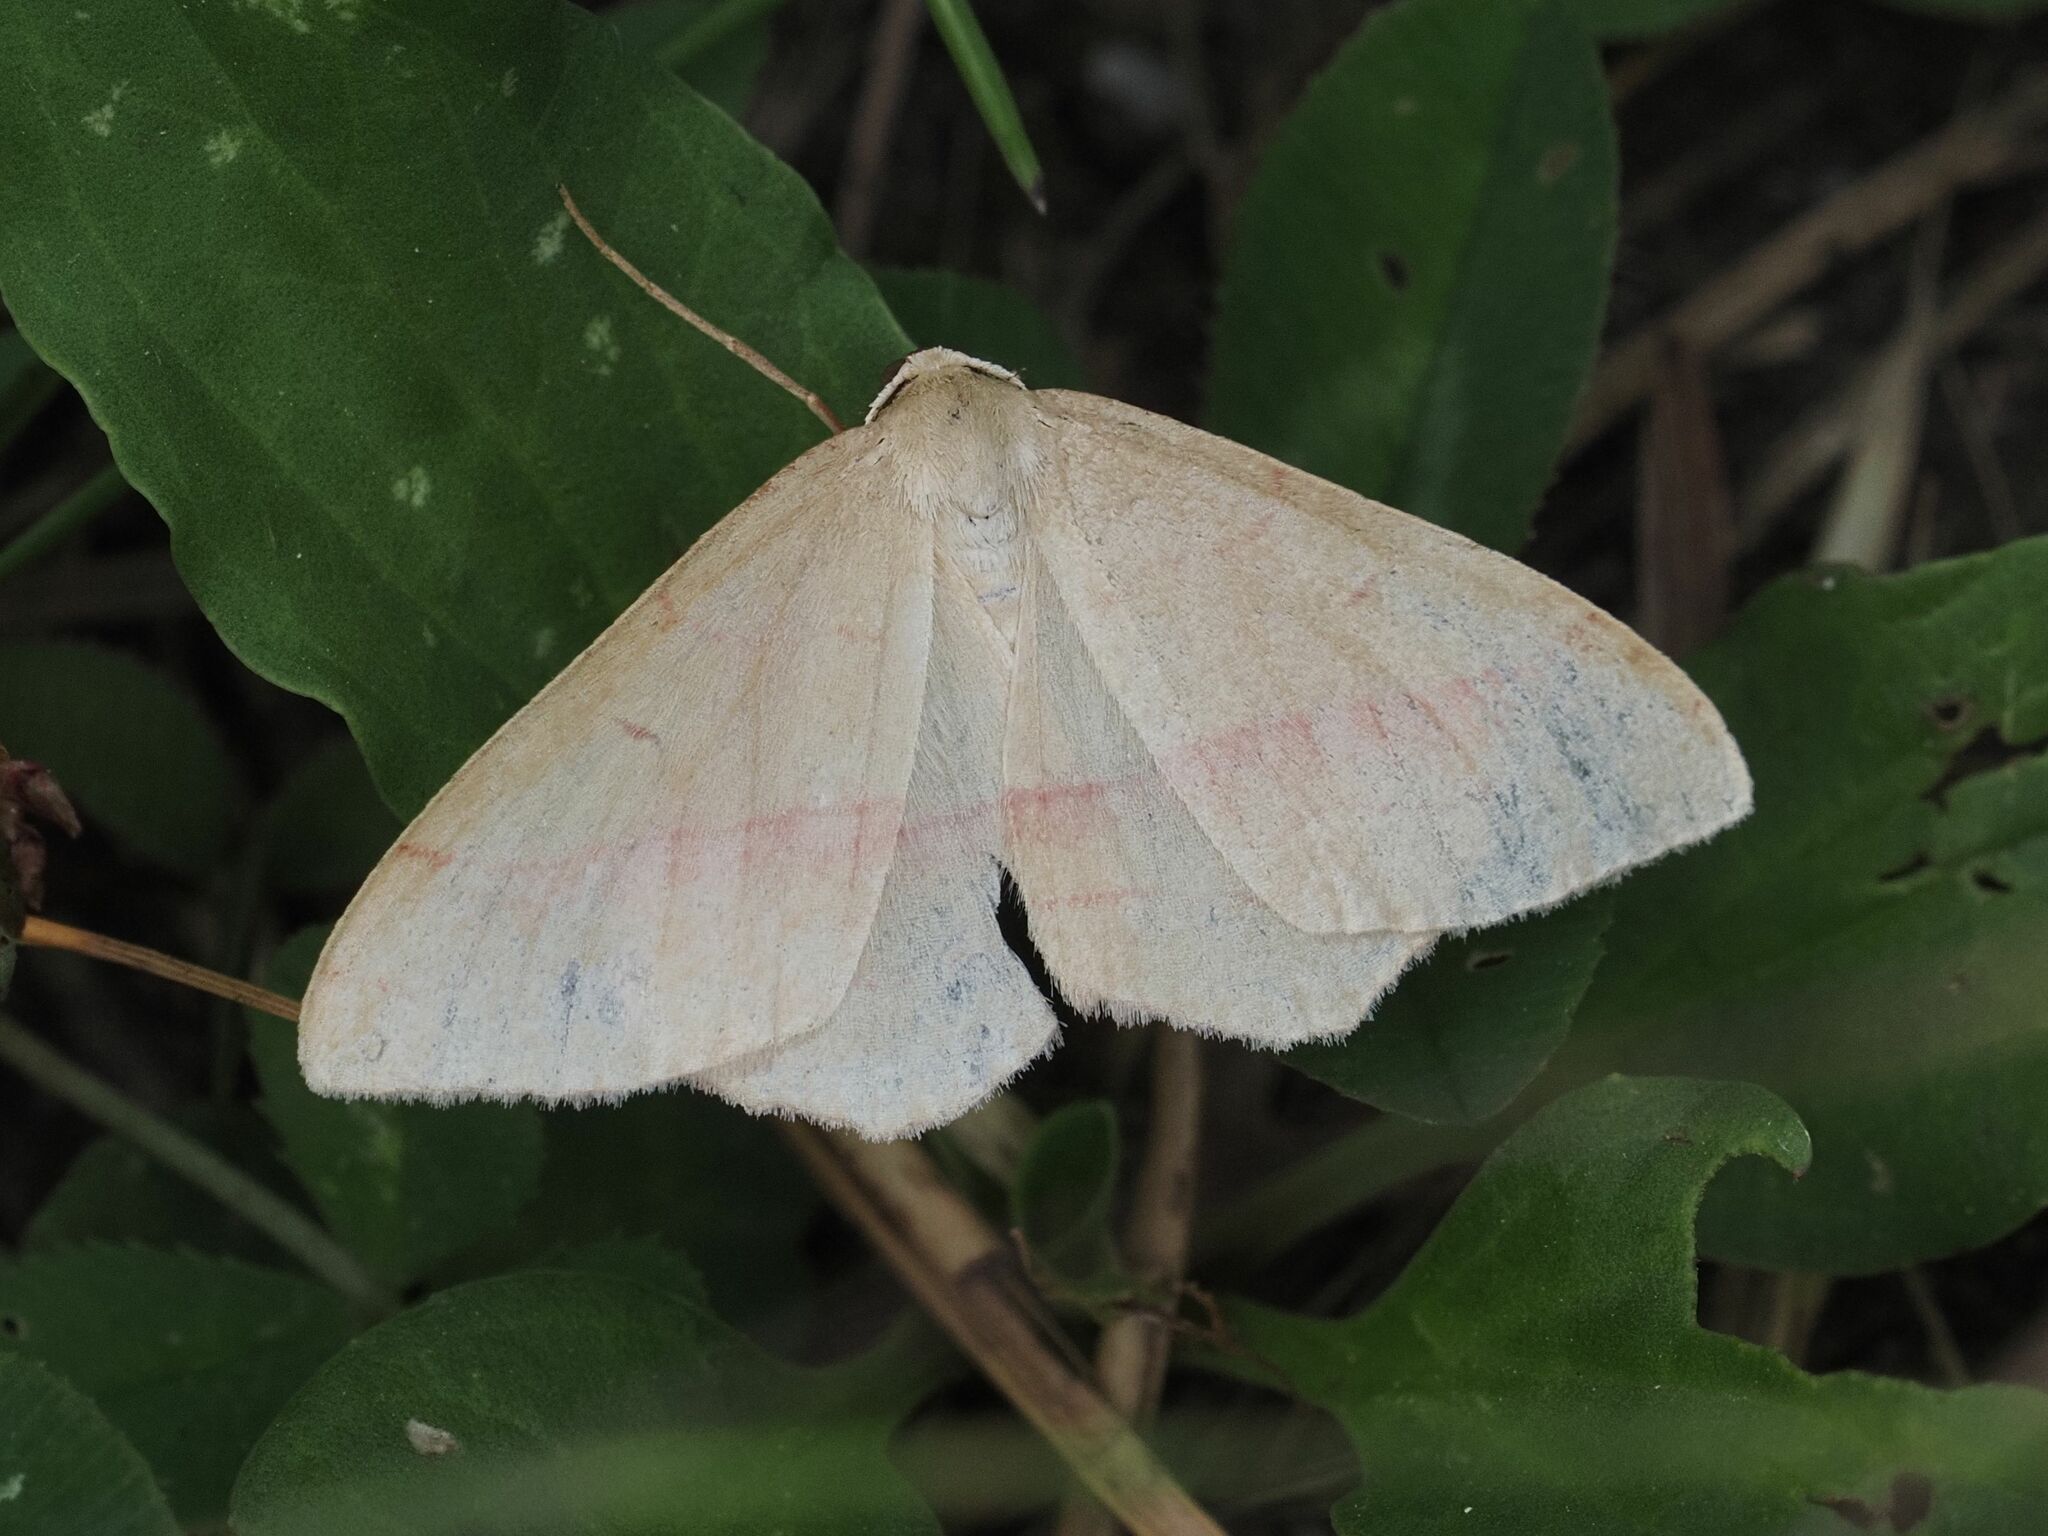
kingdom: Animalia
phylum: Arthropoda
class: Insecta
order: Lepidoptera
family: Geometridae
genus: Rhodostrophia
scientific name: Rhodostrophia vibicaria
